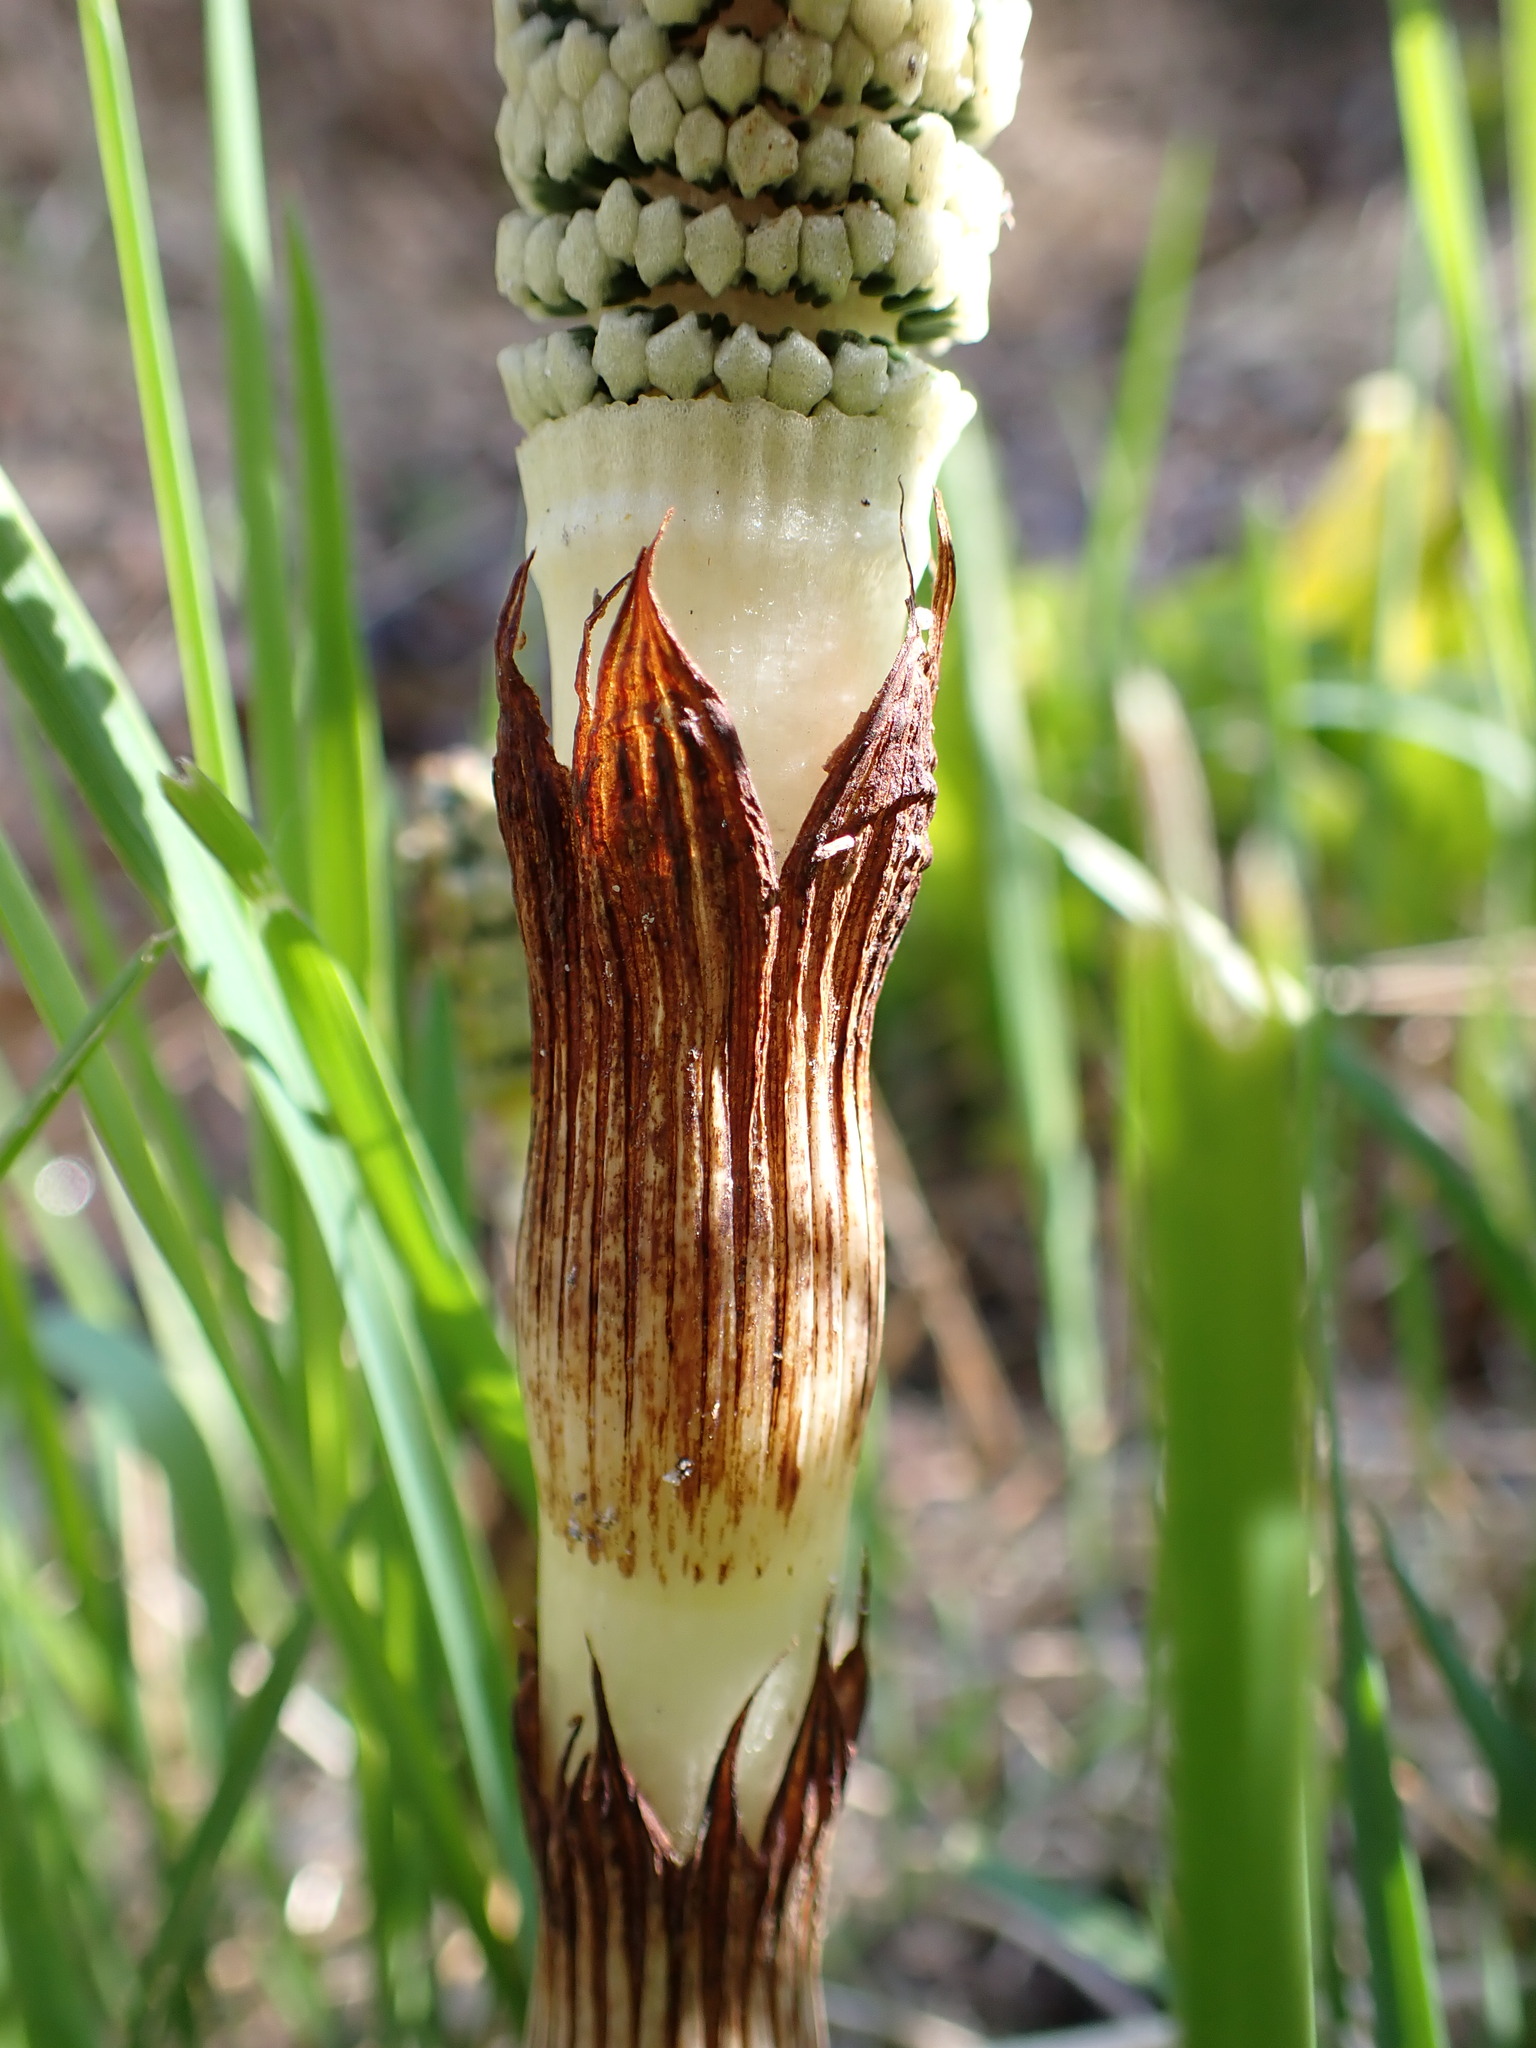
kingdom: Plantae
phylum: Tracheophyta
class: Polypodiopsida
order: Equisetales
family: Equisetaceae
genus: Equisetum
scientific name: Equisetum braunii
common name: Braun's horsetail
